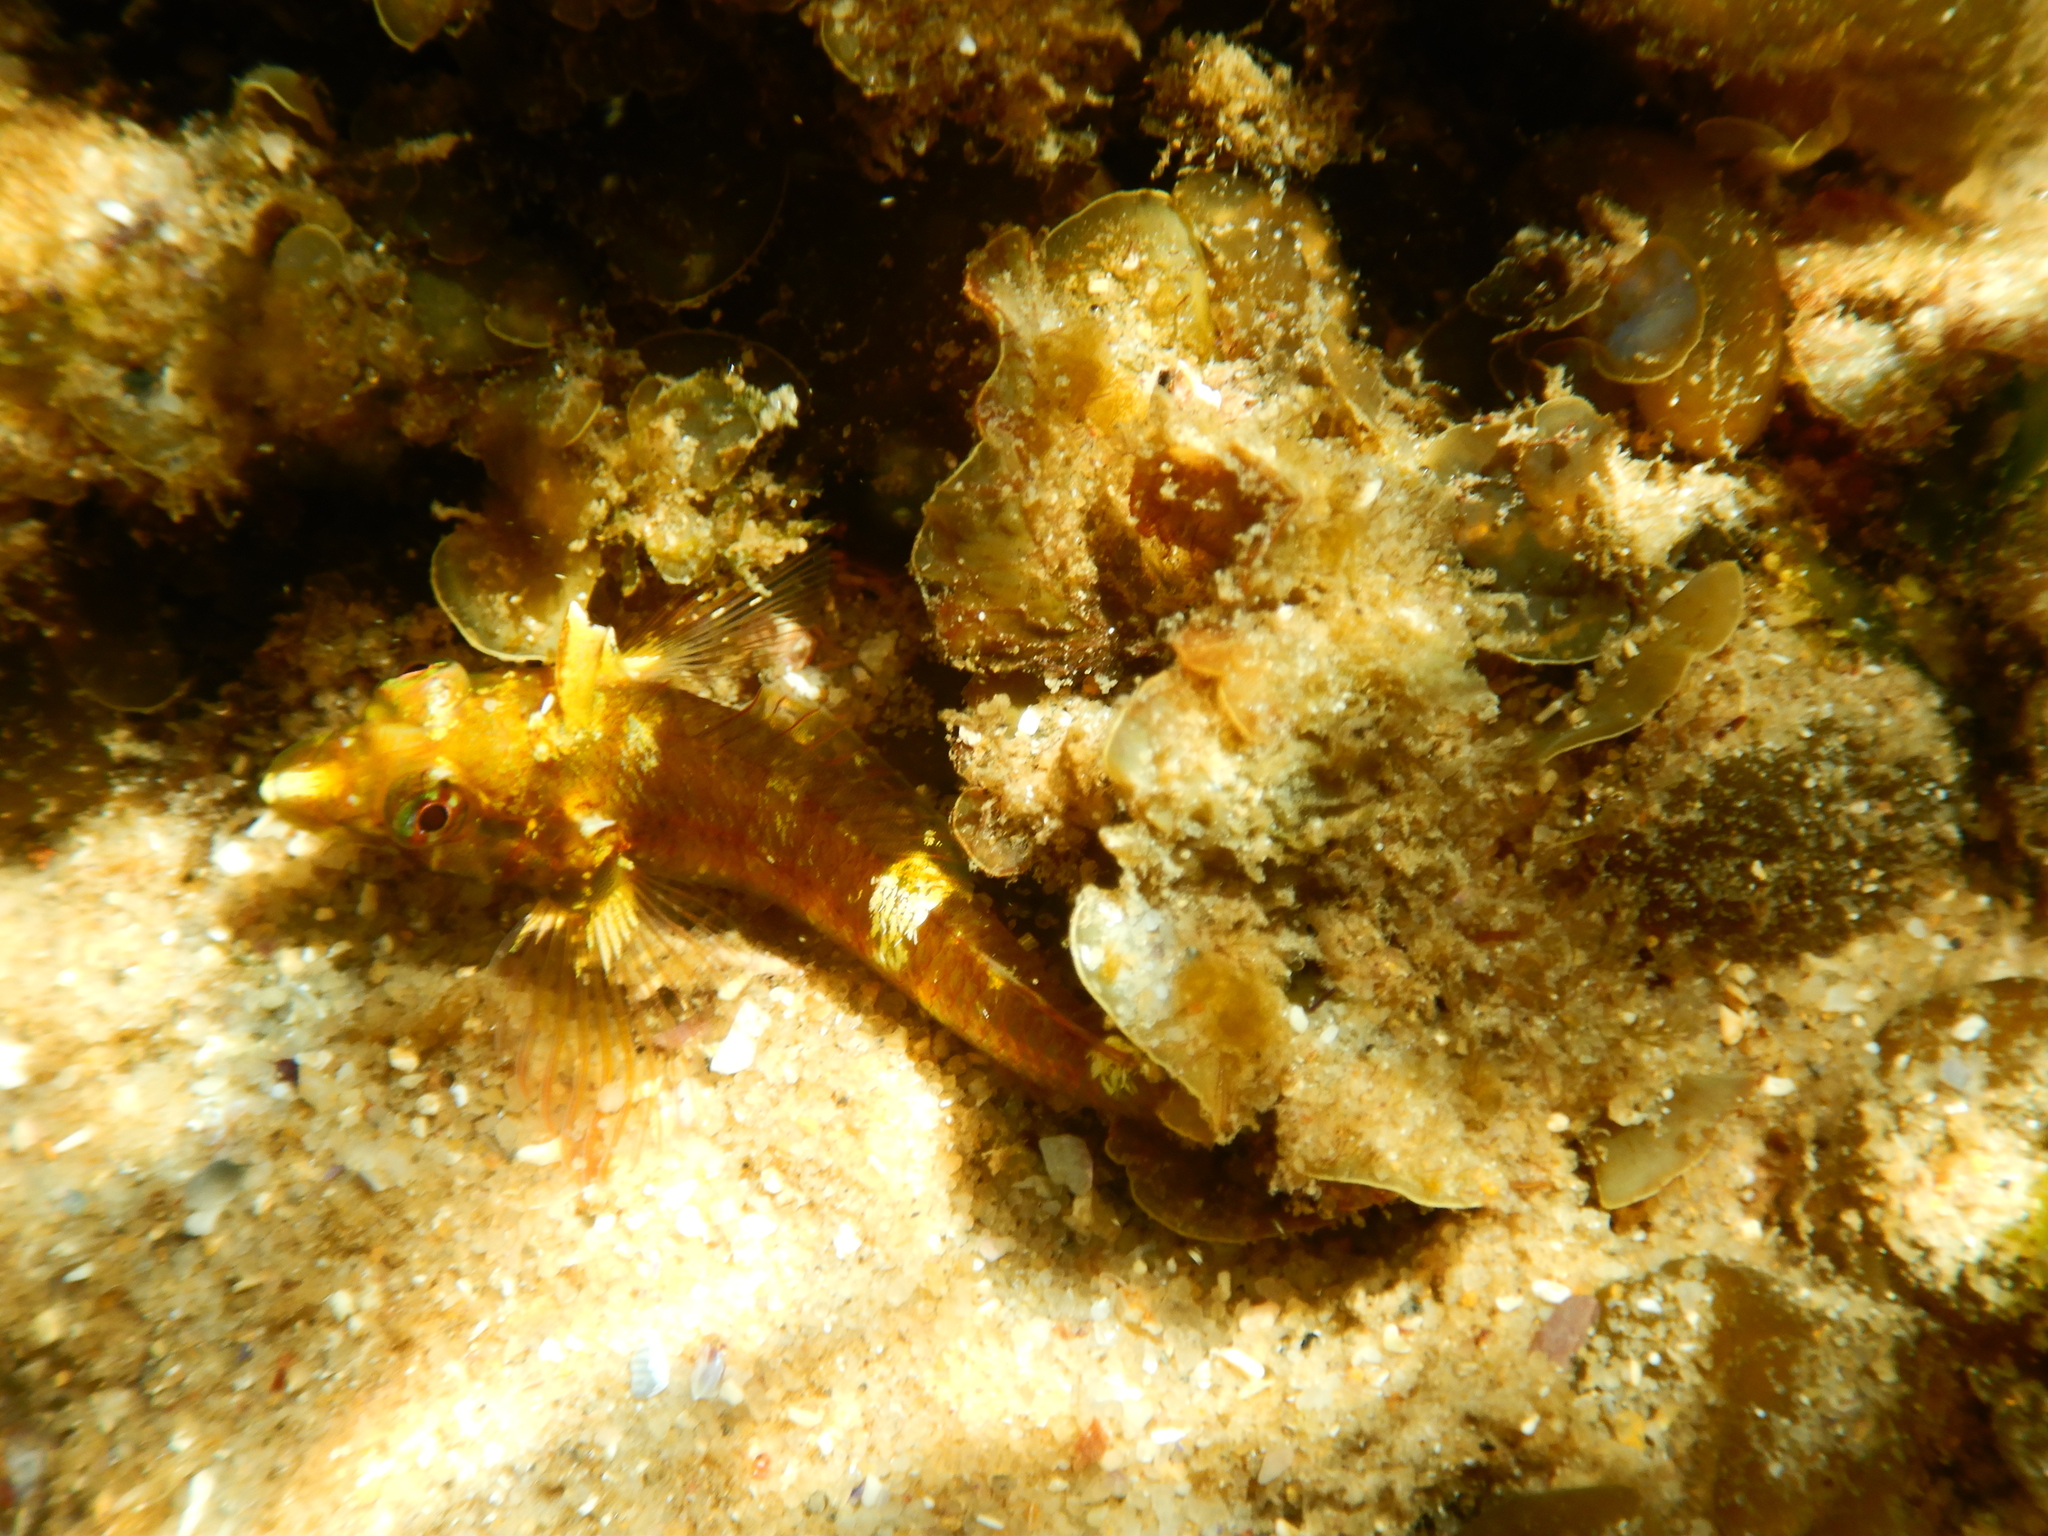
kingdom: Animalia
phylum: Chordata
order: Perciformes
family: Tripterygiidae
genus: Enneapterygius
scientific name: Enneapterygius atrogulare
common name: Blackthroat triplefin
